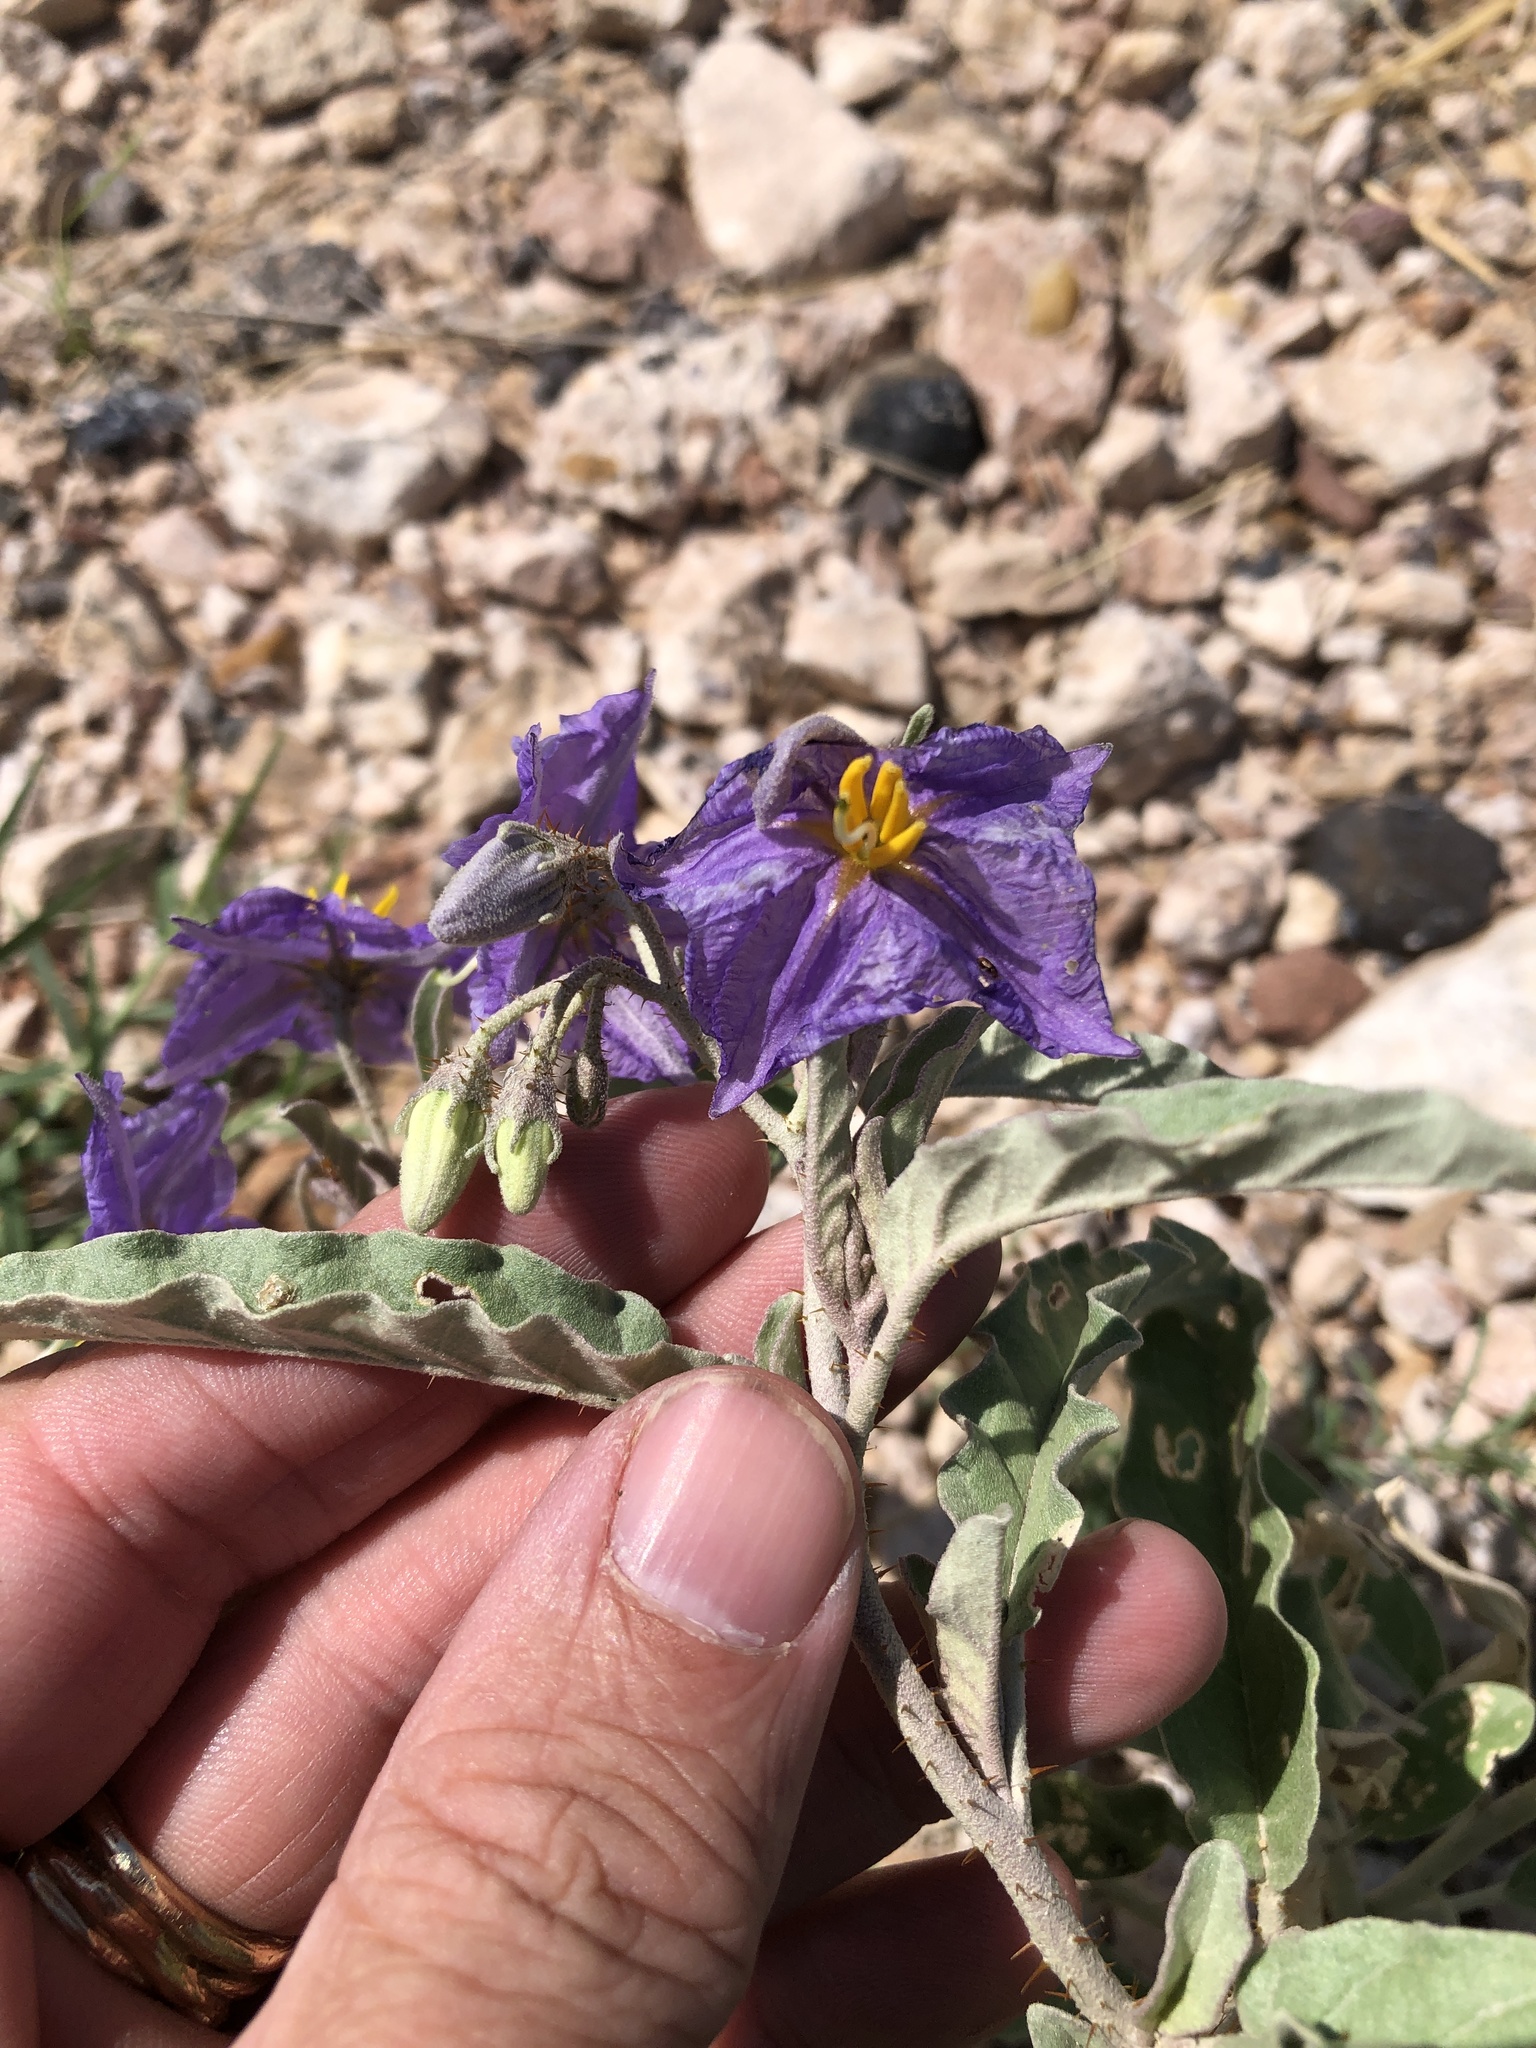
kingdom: Plantae
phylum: Tracheophyta
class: Magnoliopsida
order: Solanales
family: Solanaceae
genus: Solanum
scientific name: Solanum elaeagnifolium
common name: Silverleaf nightshade
